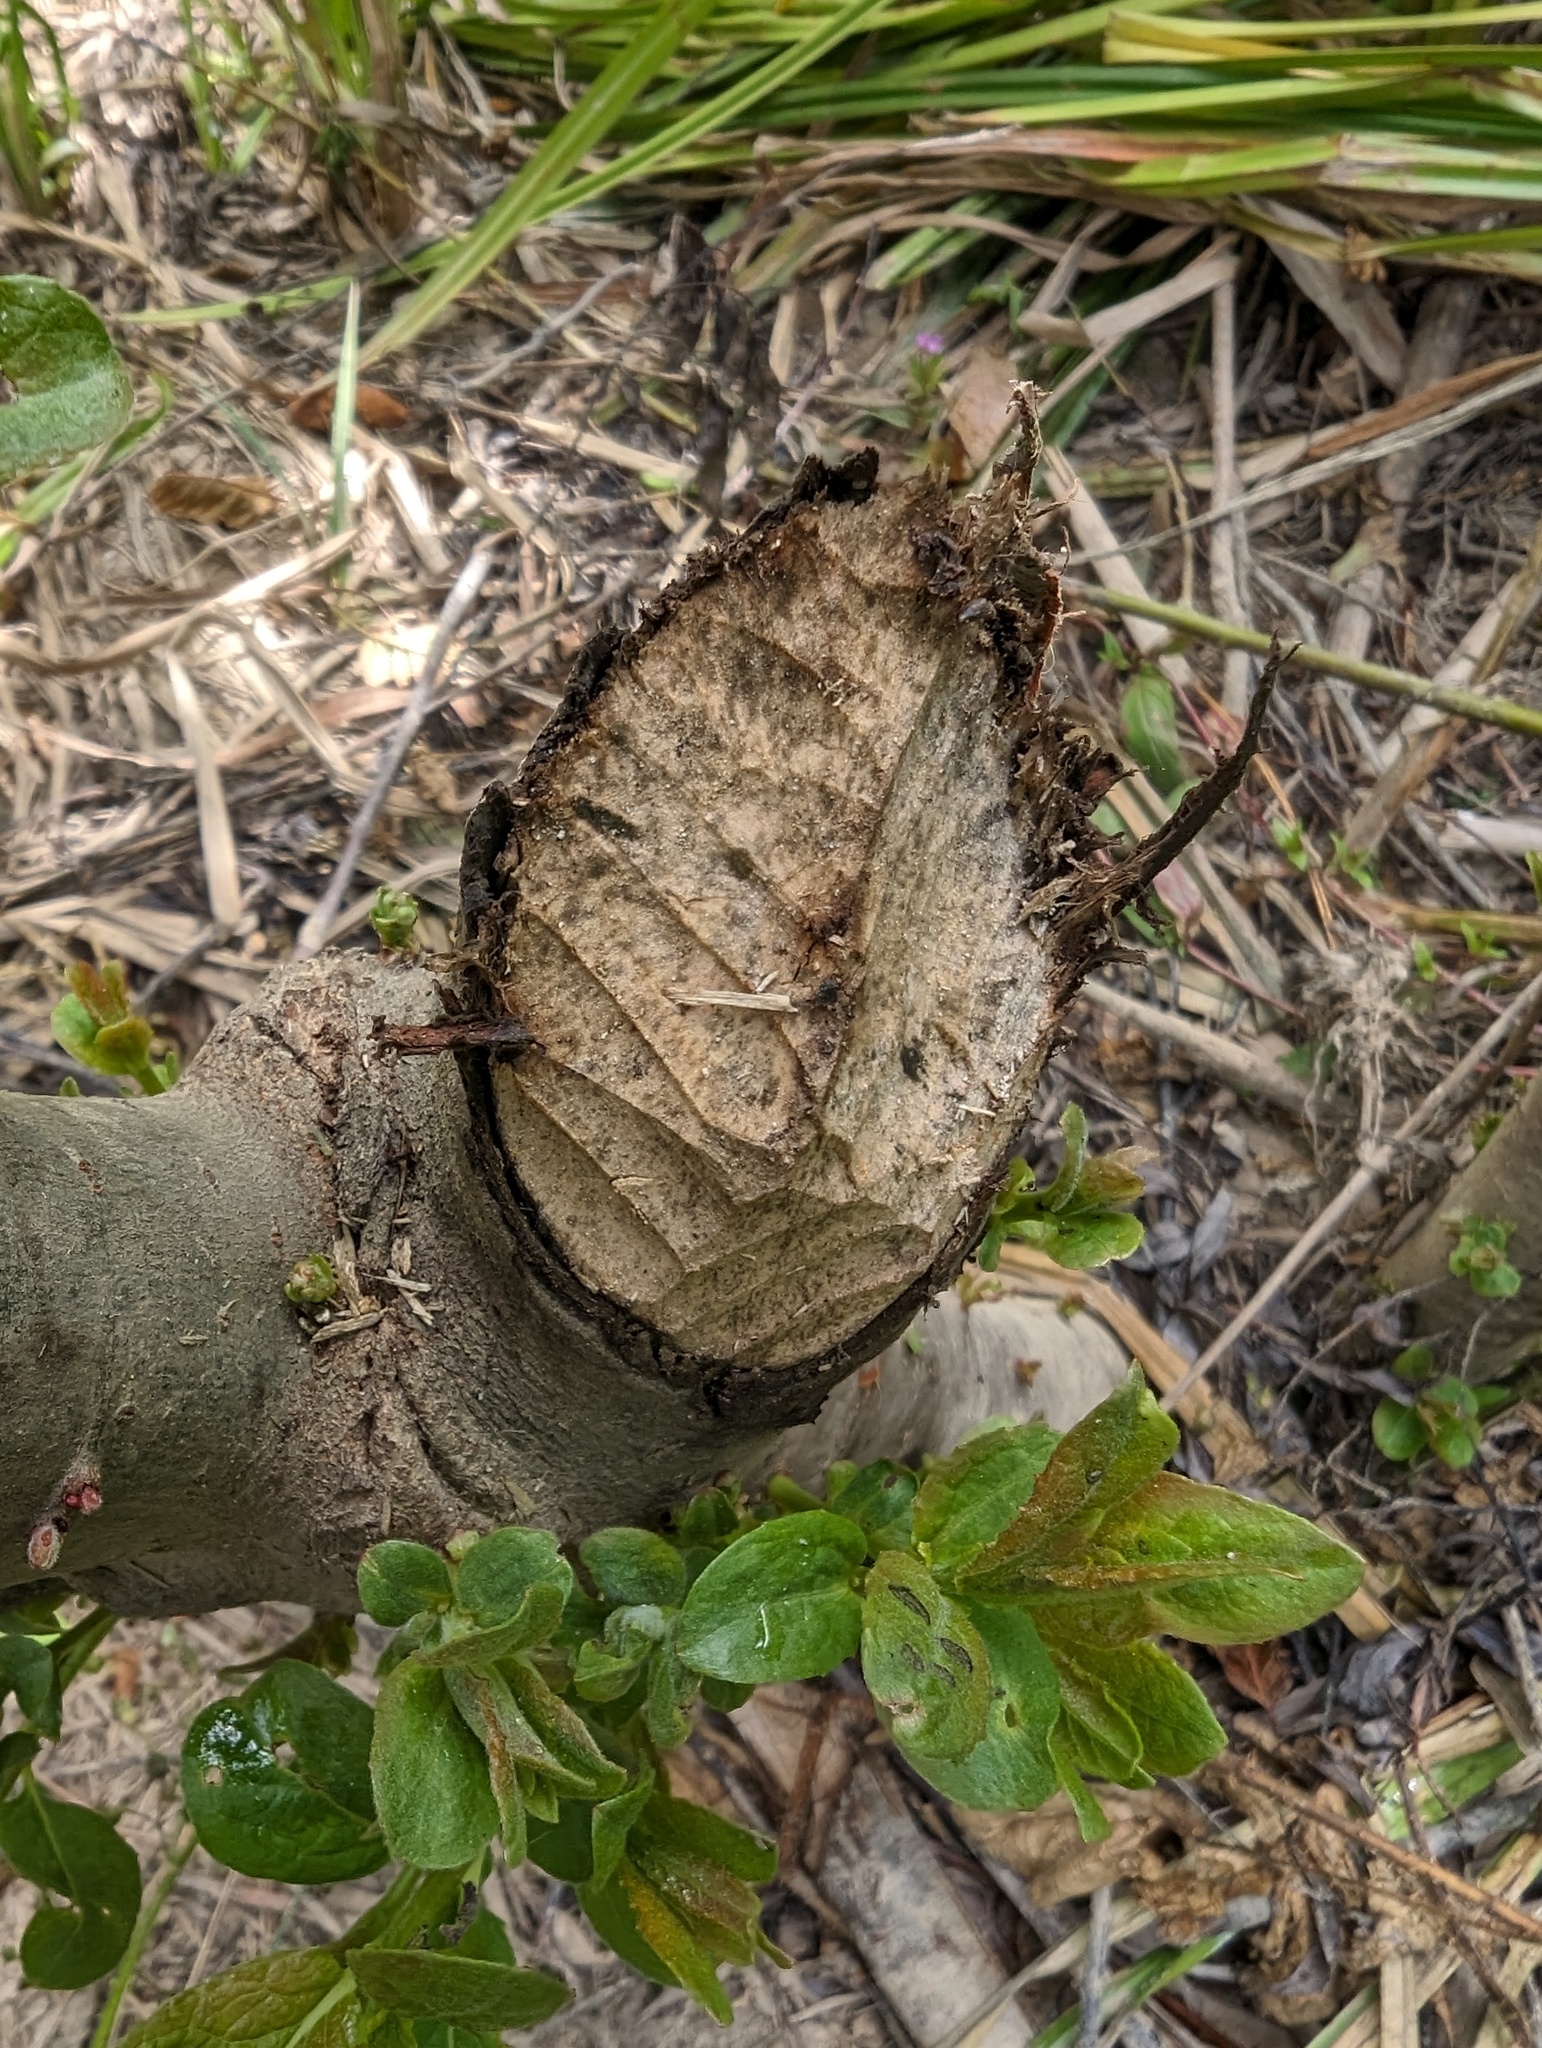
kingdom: Animalia
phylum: Chordata
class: Mammalia
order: Rodentia
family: Castoridae
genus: Castor
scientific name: Castor canadensis
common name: American beaver
